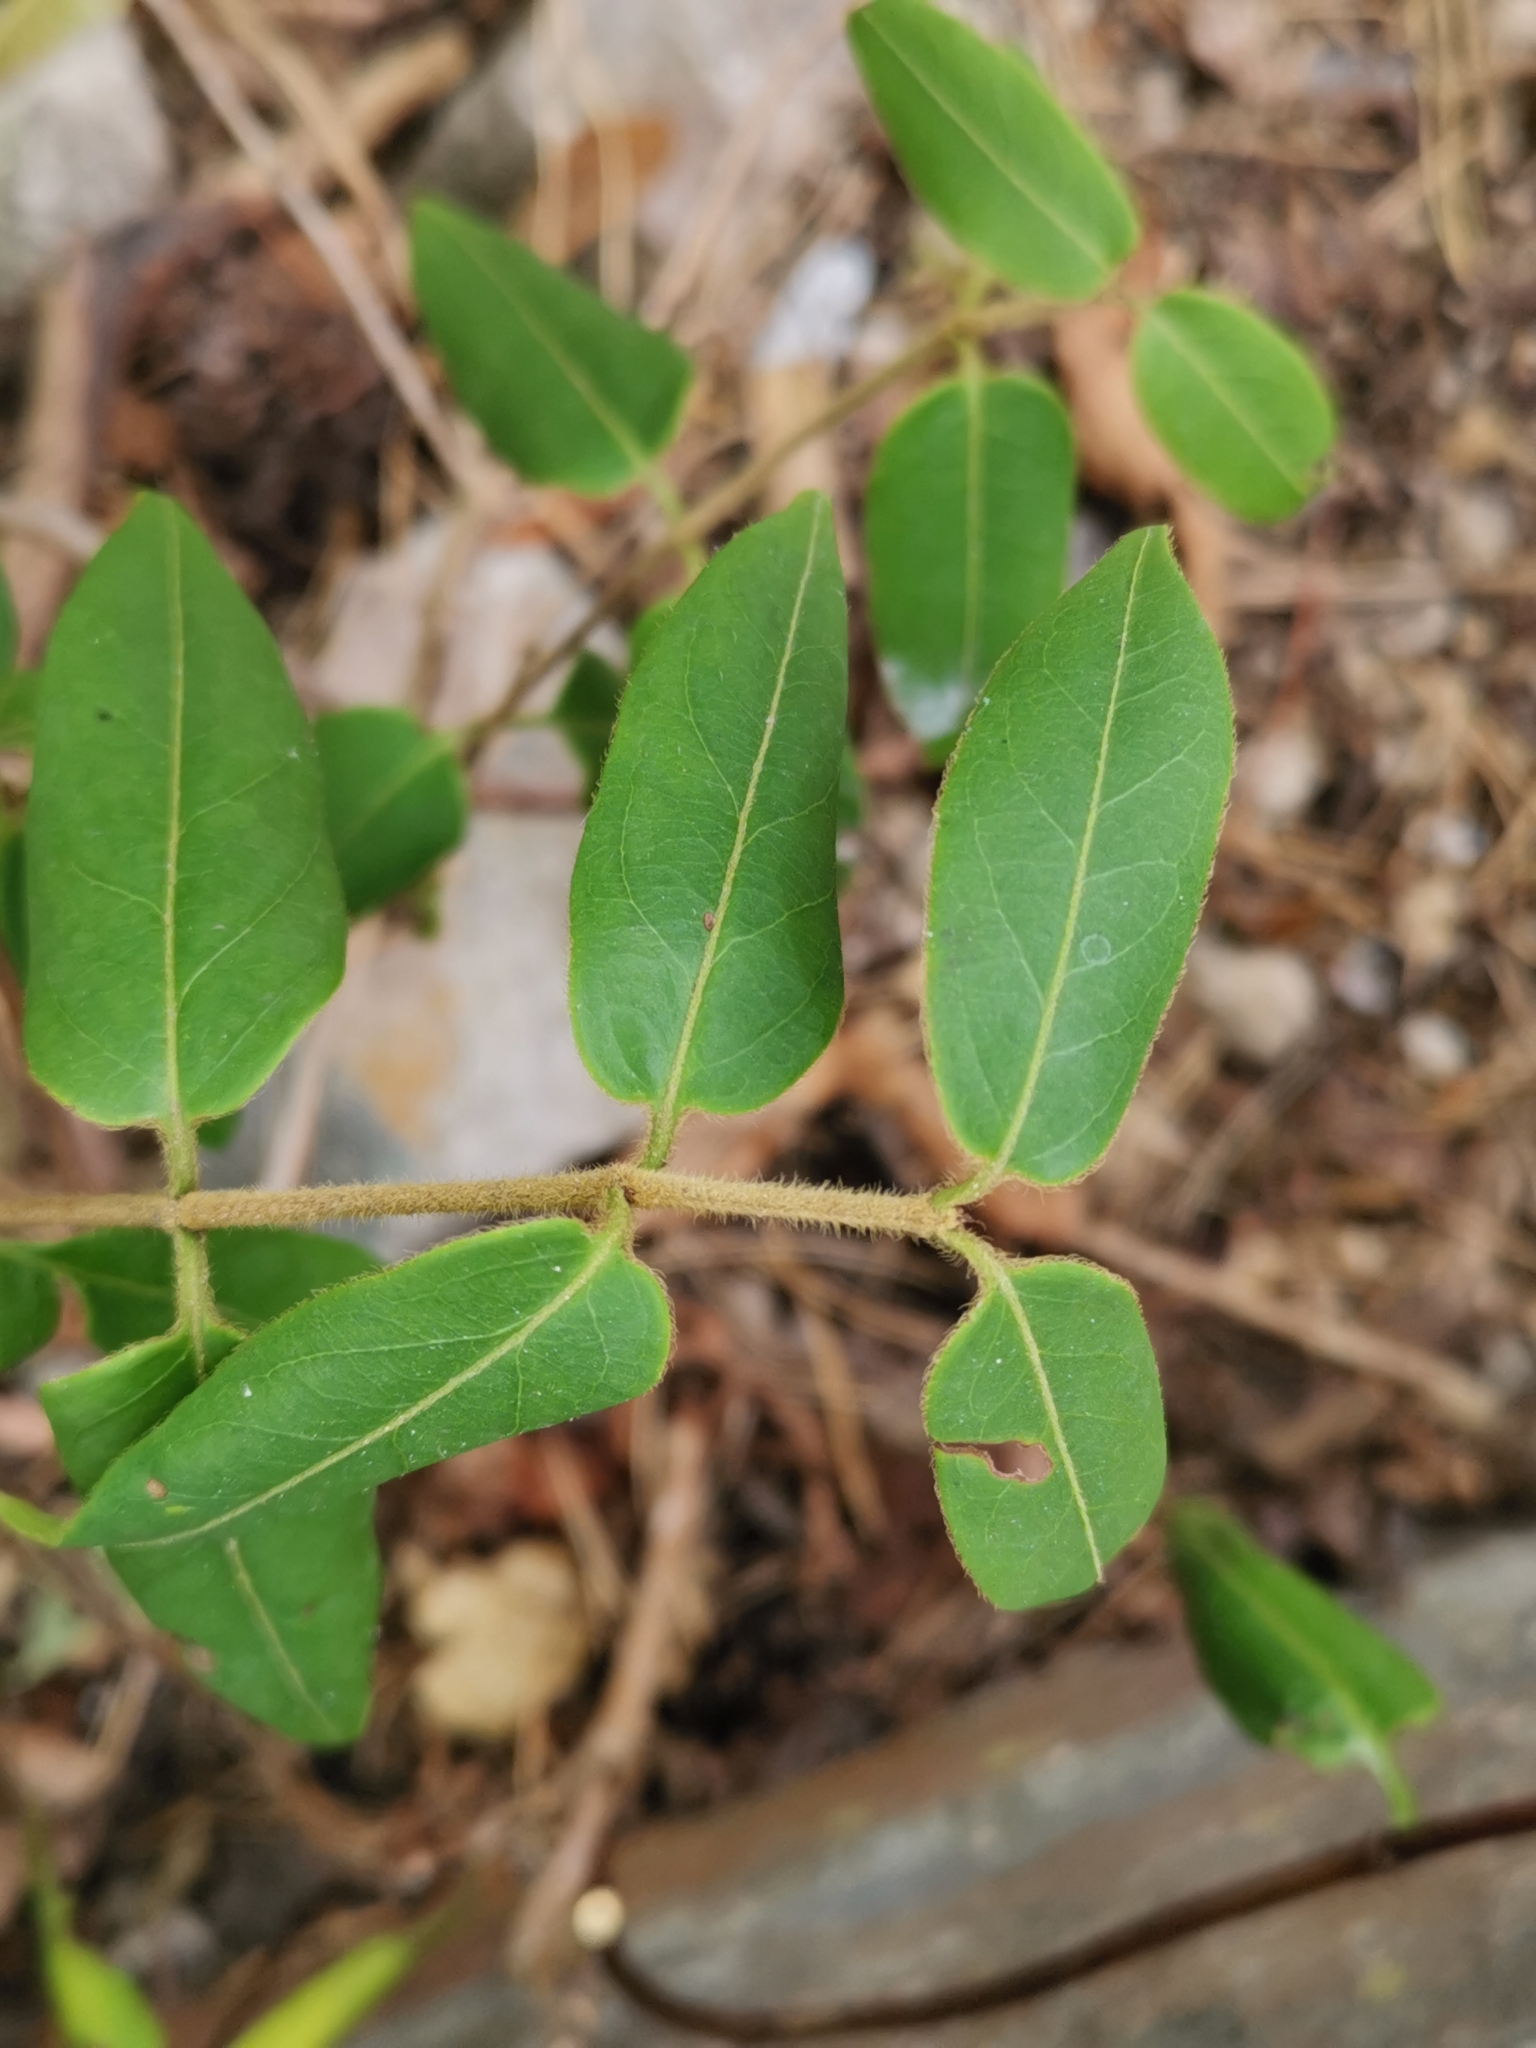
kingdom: Plantae
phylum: Tracheophyta
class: Magnoliopsida
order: Dipsacales
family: Caprifoliaceae
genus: Lonicera
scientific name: Lonicera acuminata
